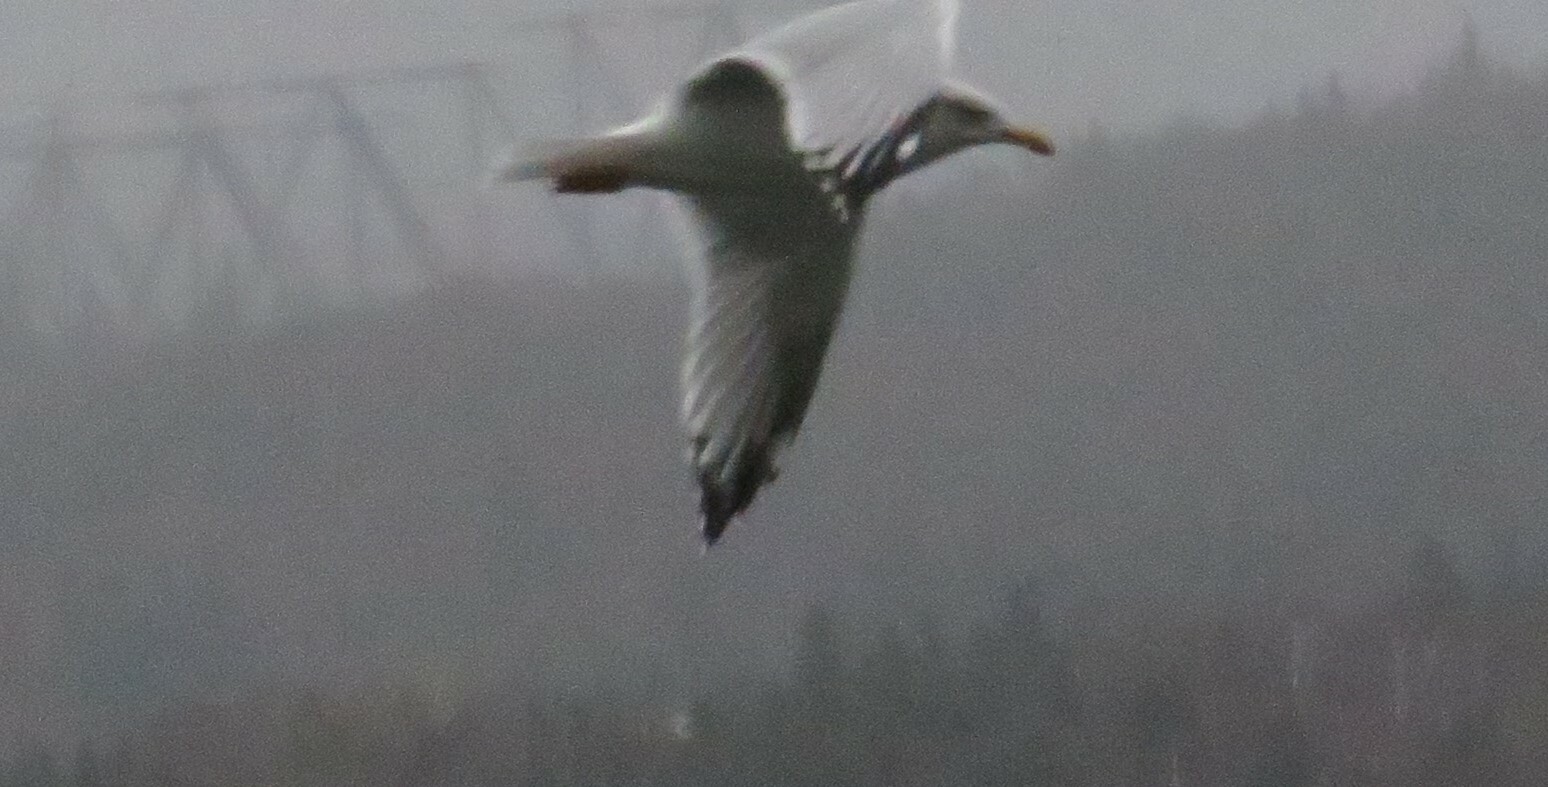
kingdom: Animalia
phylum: Chordata
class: Aves
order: Charadriiformes
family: Laridae
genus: Larus
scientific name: Larus argentatus
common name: Herring gull
